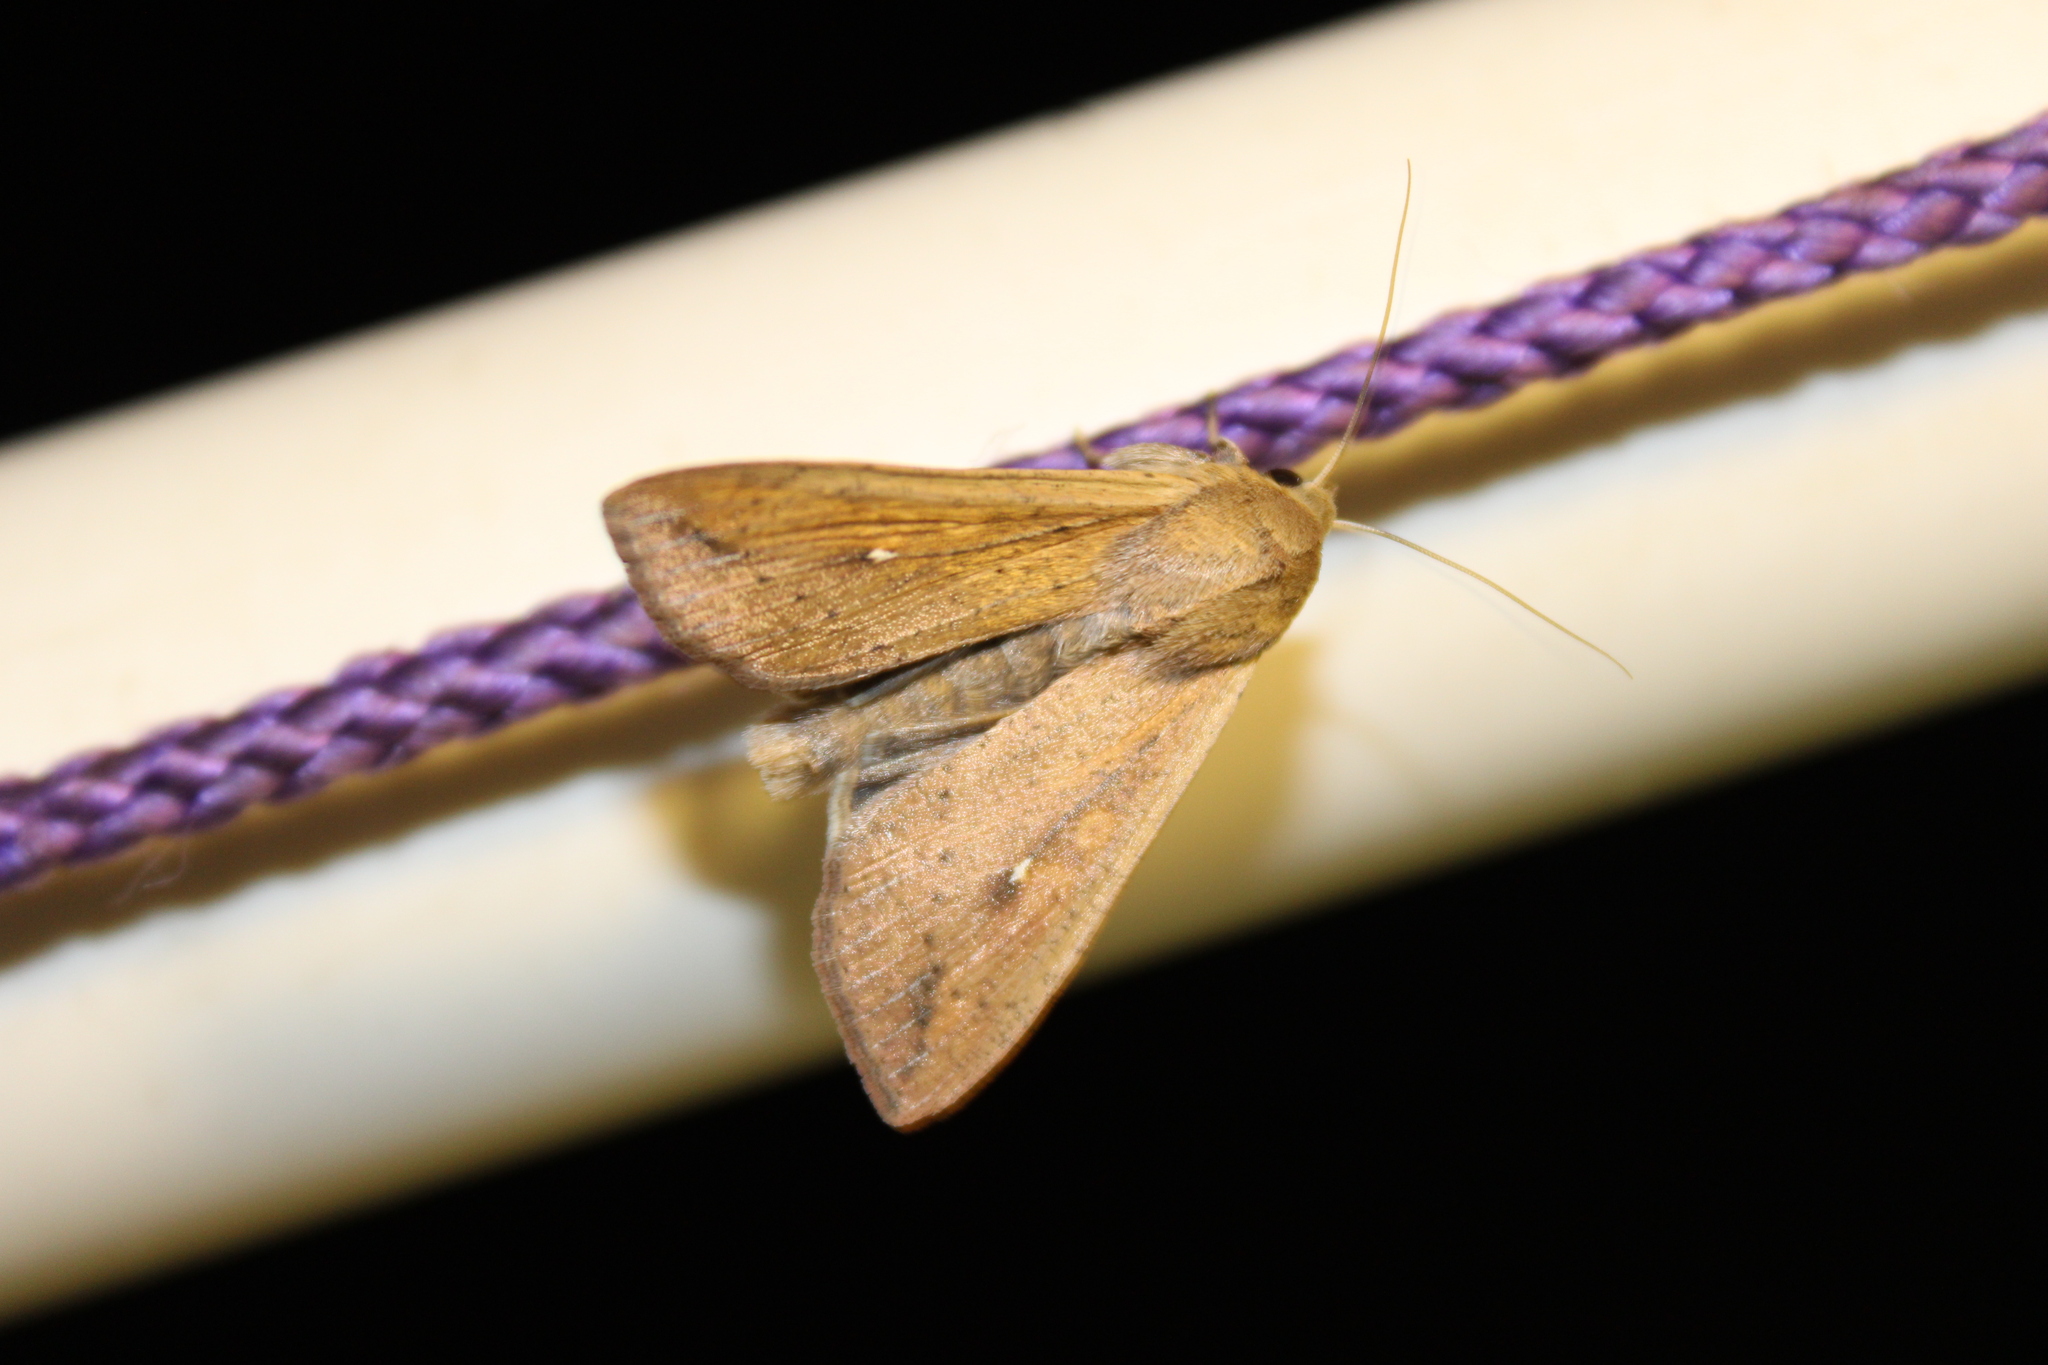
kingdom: Animalia
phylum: Arthropoda
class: Insecta
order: Lepidoptera
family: Noctuidae
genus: Mythimna
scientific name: Mythimna unipuncta
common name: White-speck
